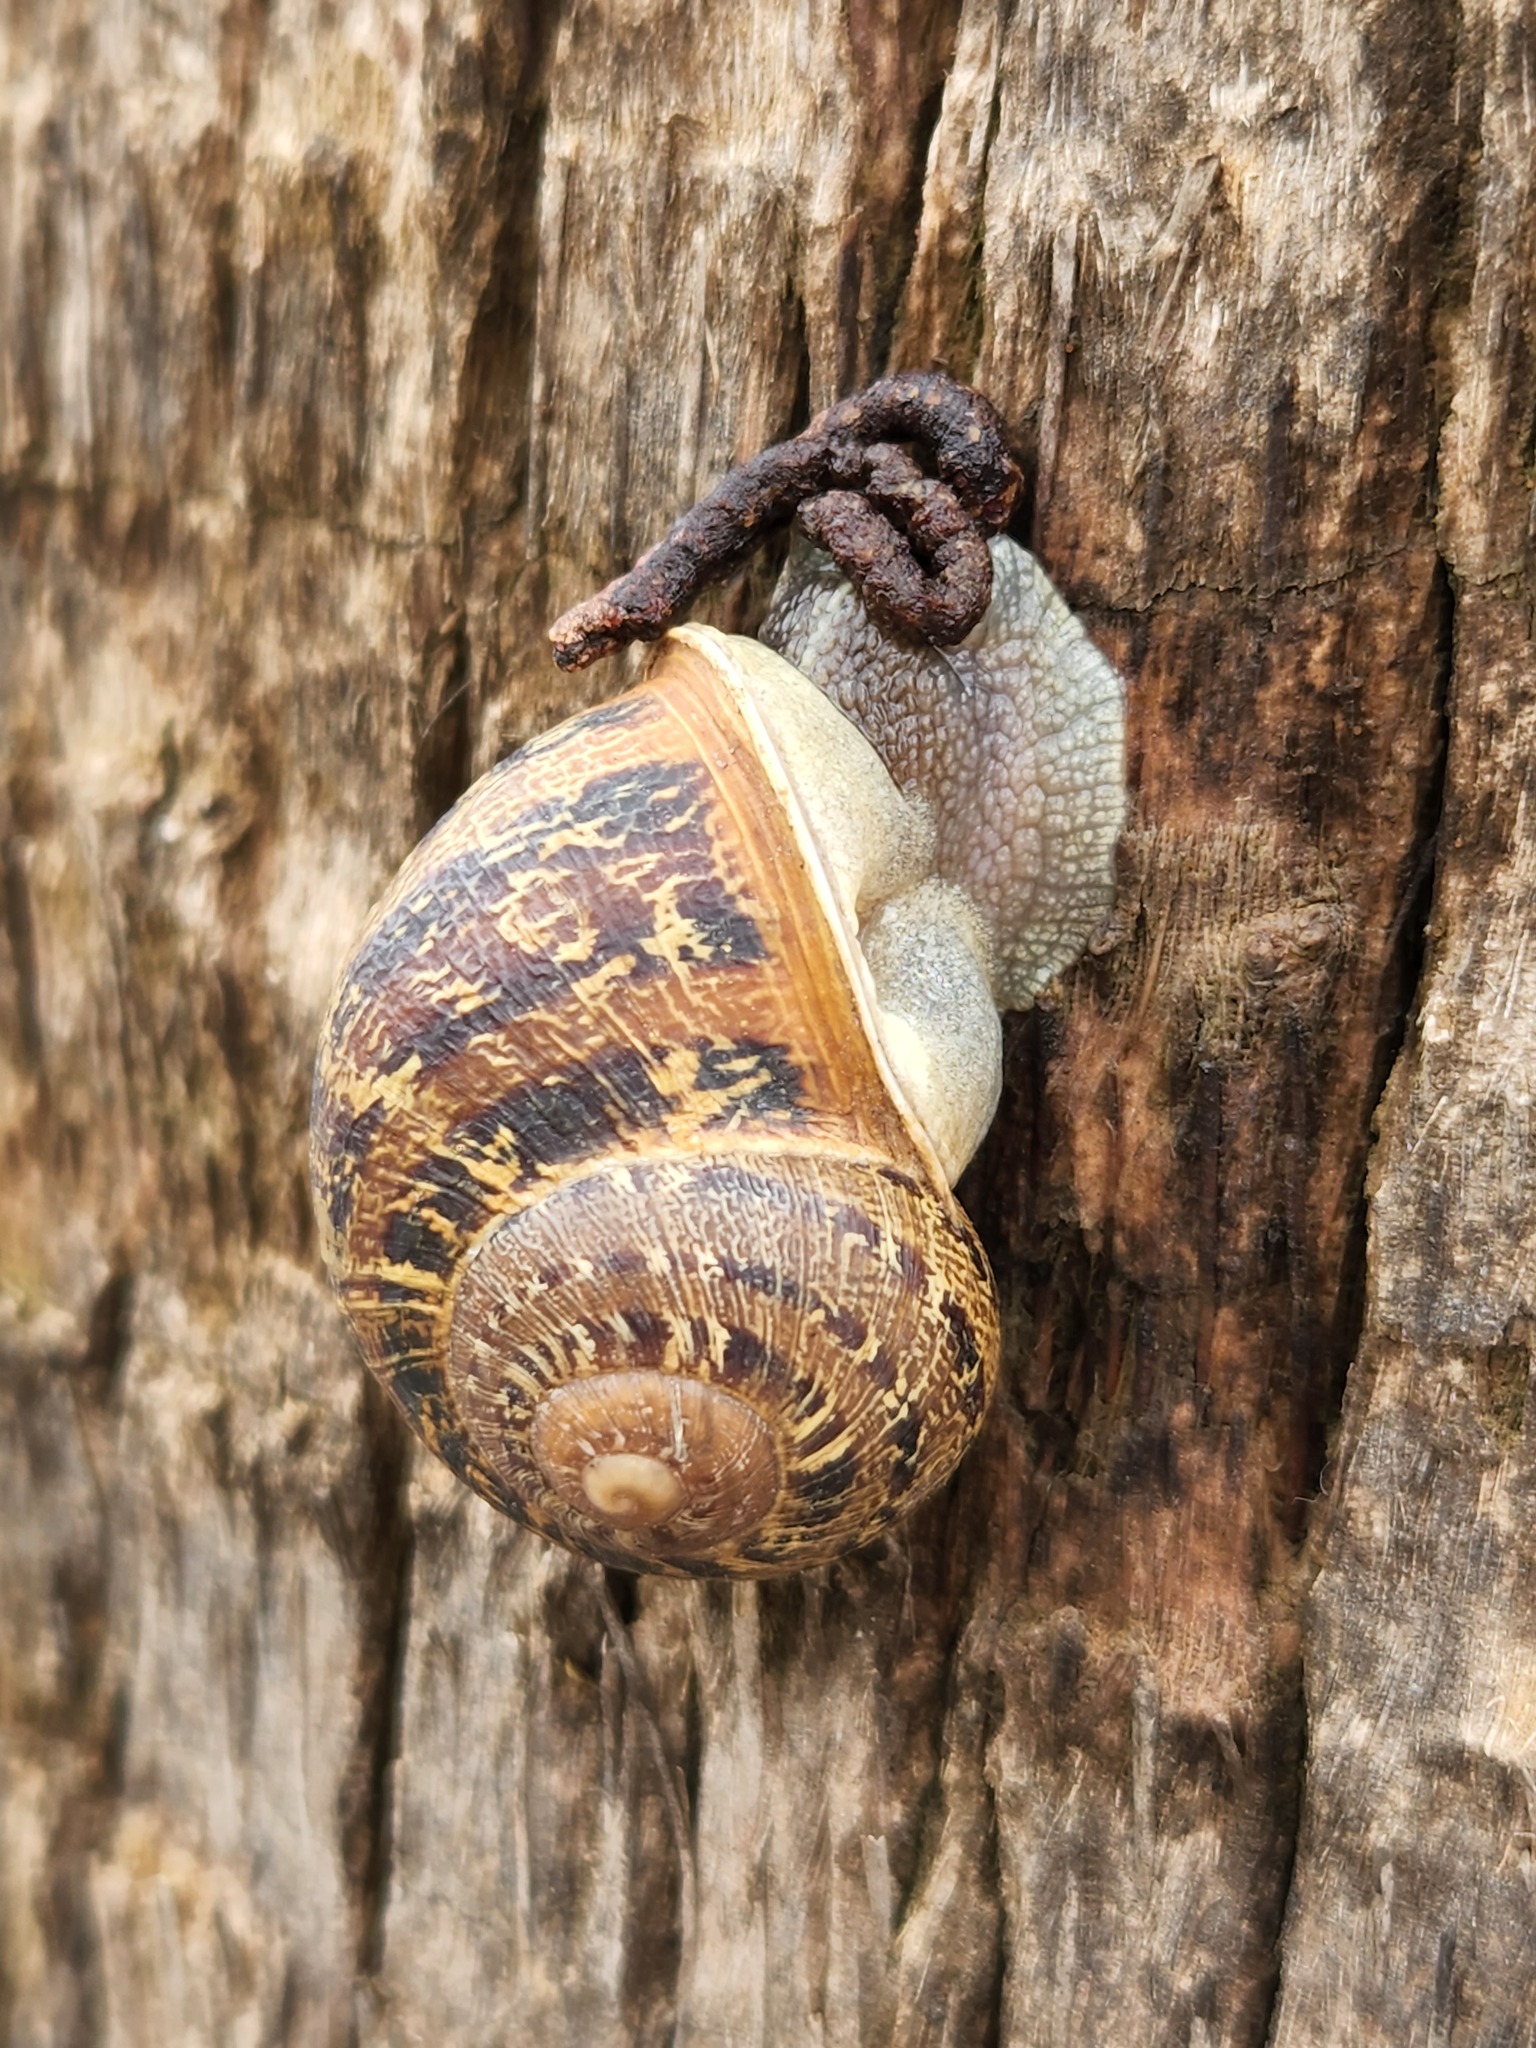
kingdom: Animalia
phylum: Mollusca
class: Gastropoda
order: Stylommatophora
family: Helicidae
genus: Cornu
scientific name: Cornu aspersum
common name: Brown garden snail
